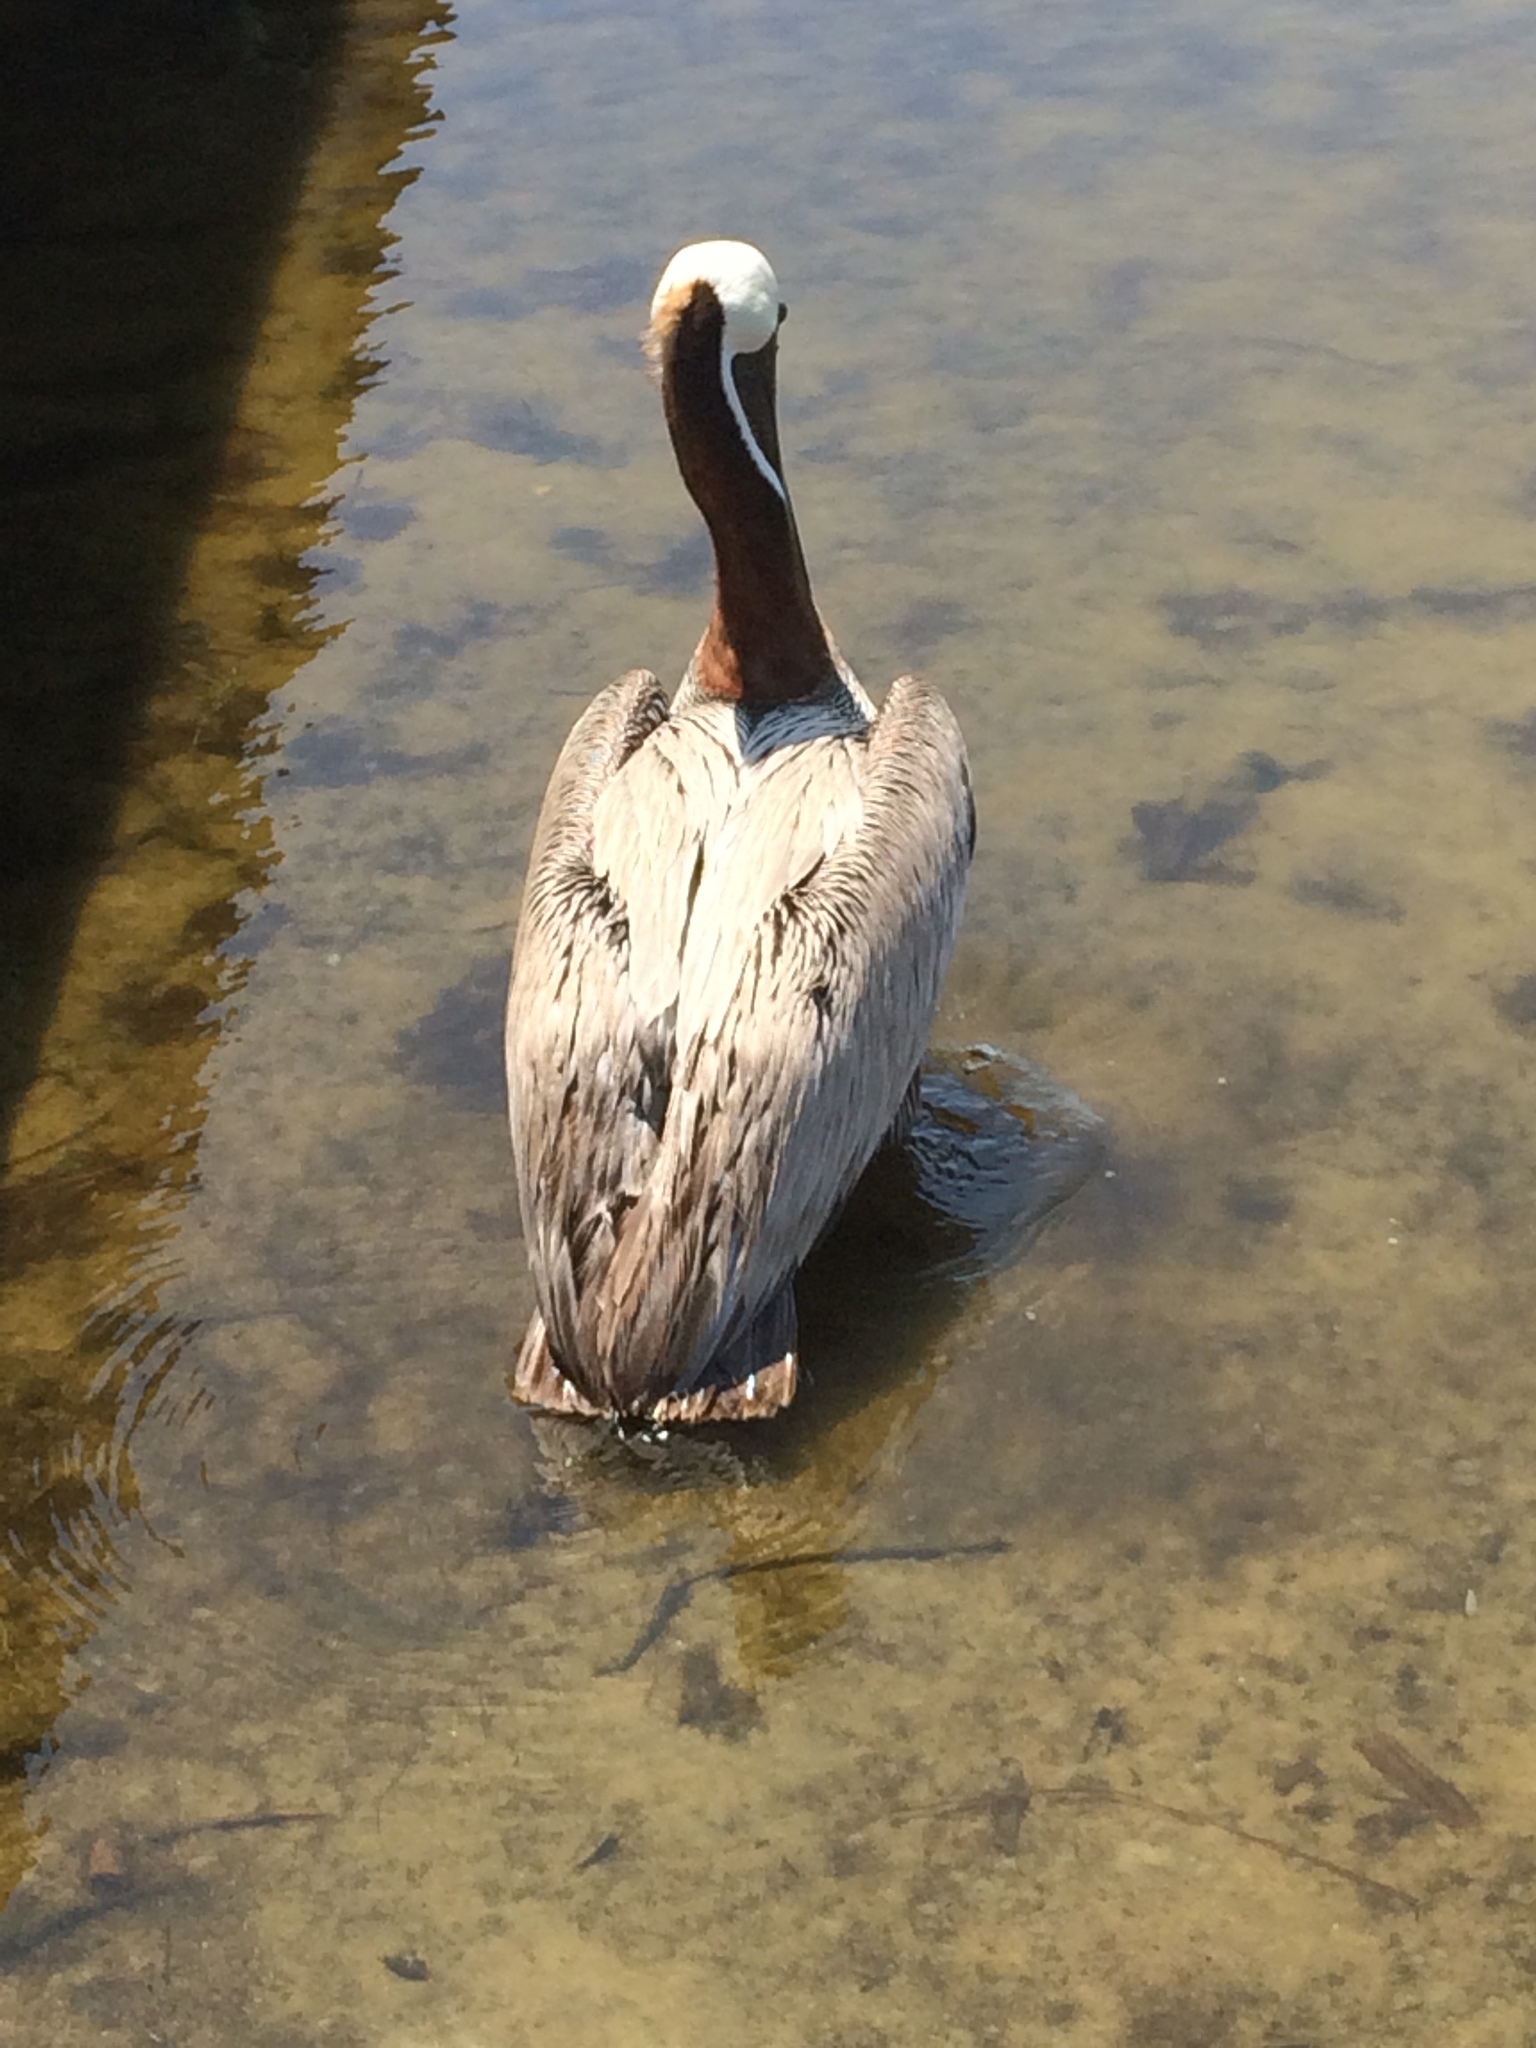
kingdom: Animalia
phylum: Chordata
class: Aves
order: Pelecaniformes
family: Pelecanidae
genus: Pelecanus
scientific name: Pelecanus occidentalis
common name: Brown pelican
